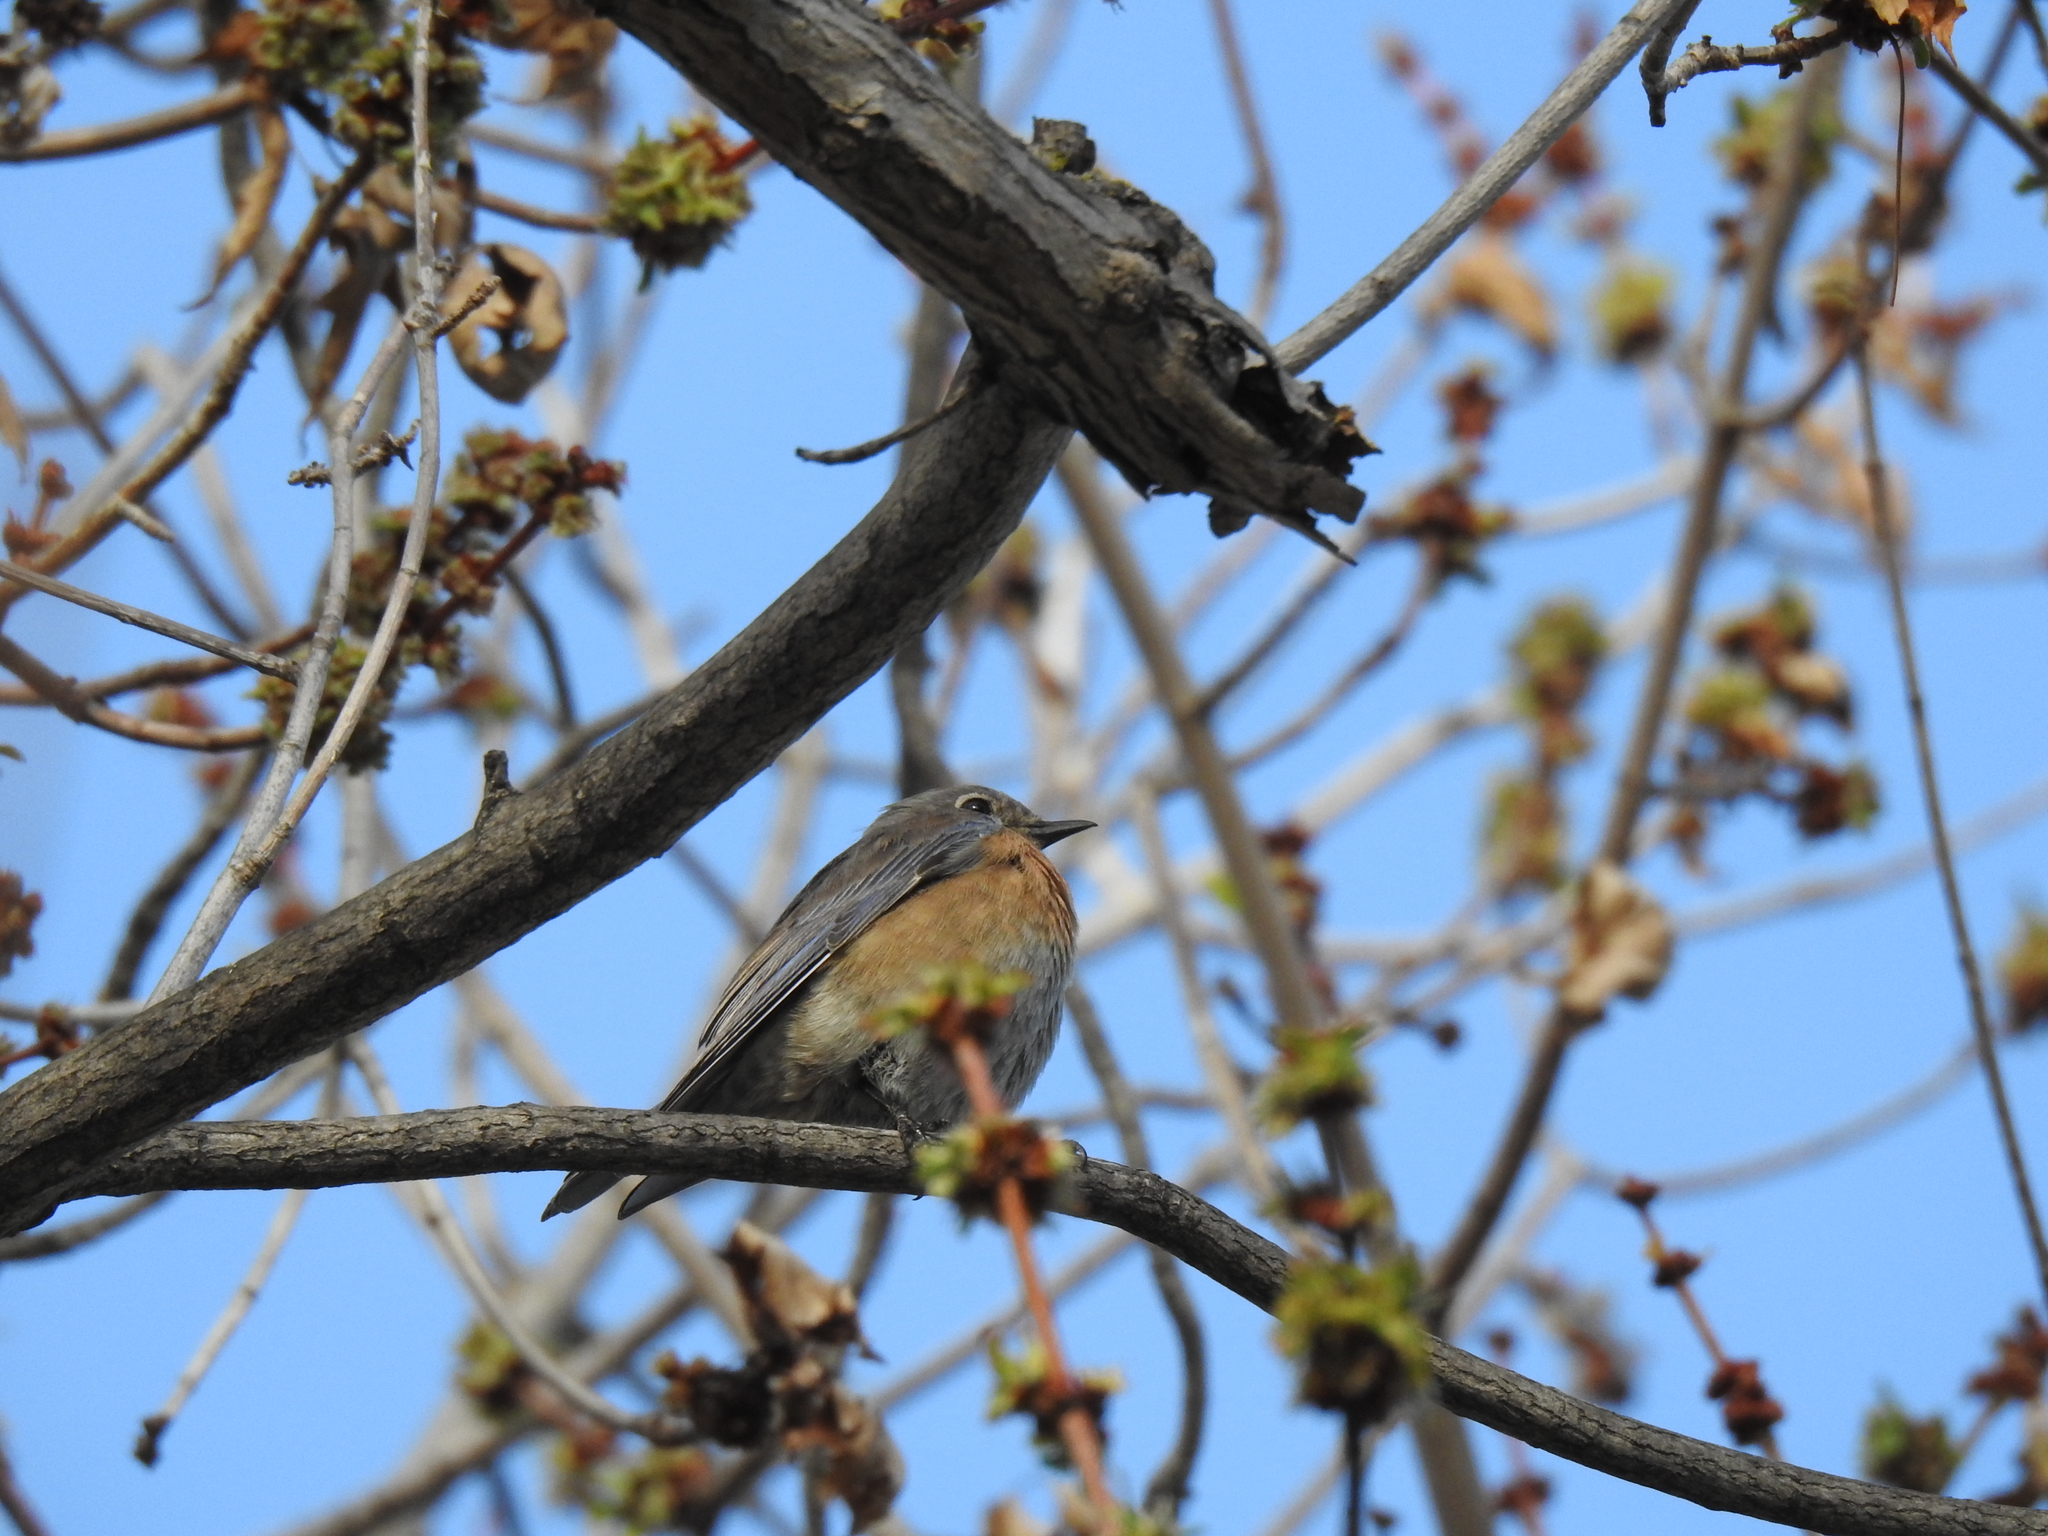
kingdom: Animalia
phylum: Chordata
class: Aves
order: Passeriformes
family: Turdidae
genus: Sialia
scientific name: Sialia mexicana
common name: Western bluebird
